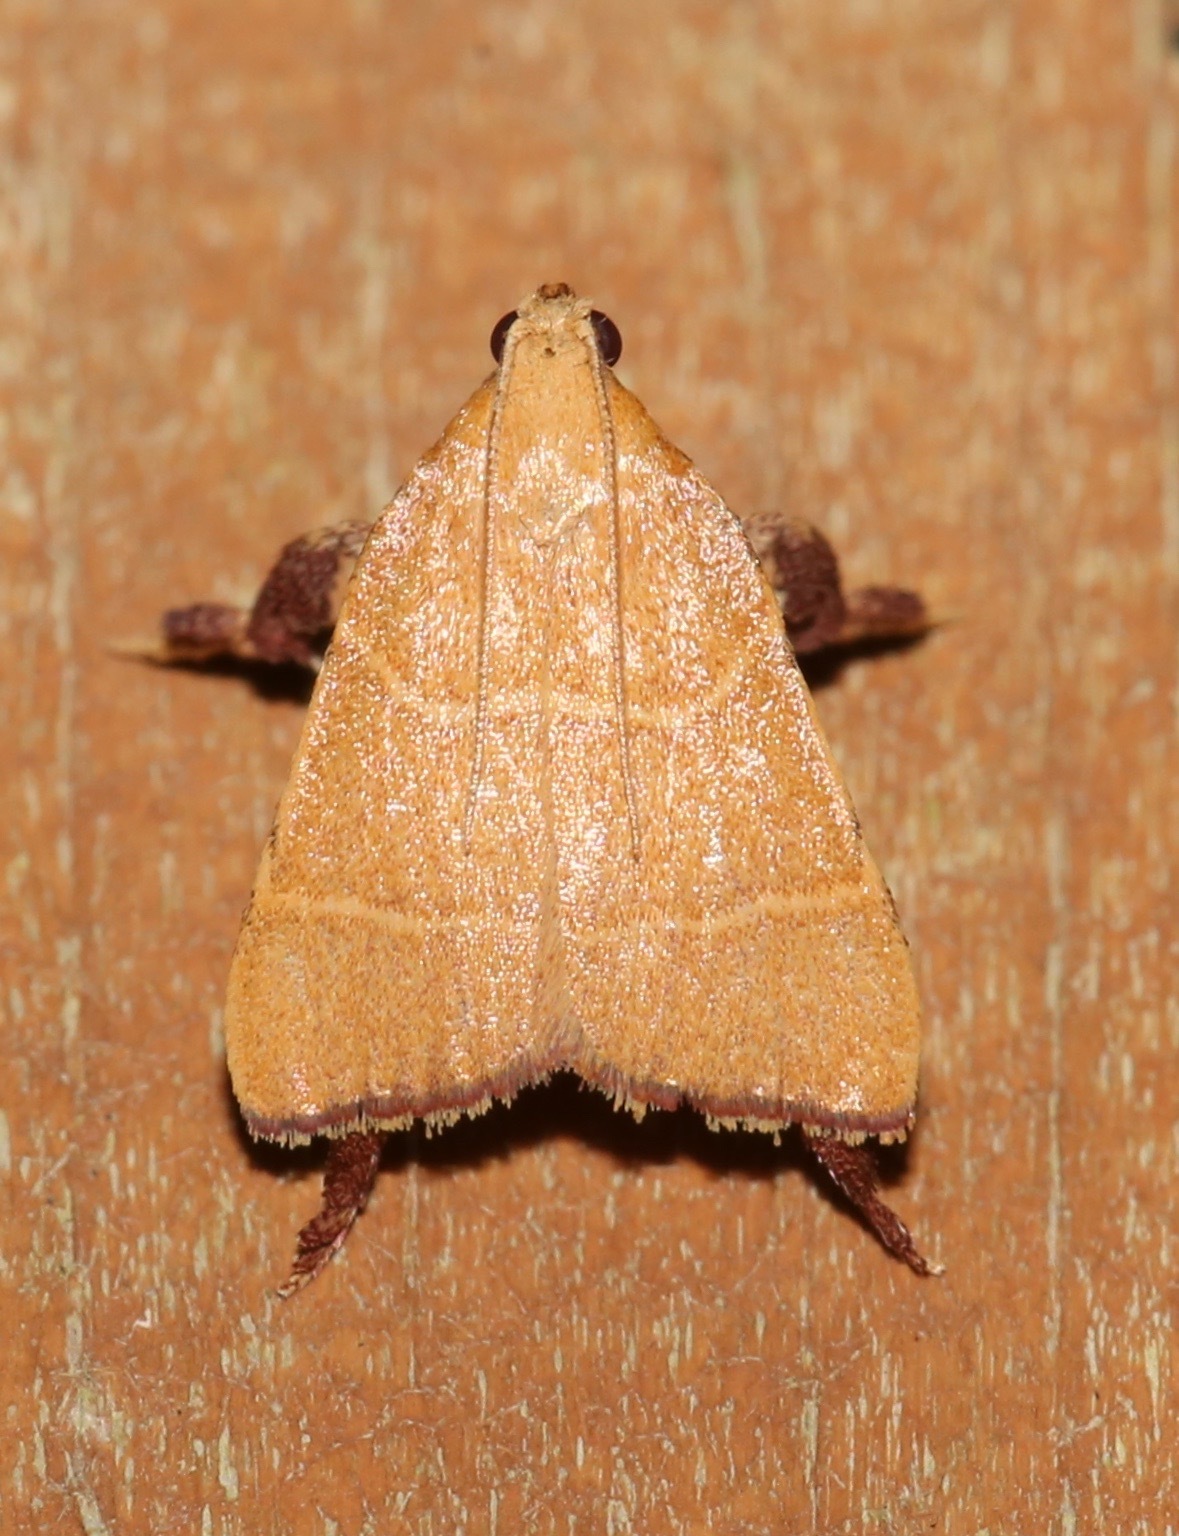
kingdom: Animalia
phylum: Arthropoda
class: Insecta
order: Lepidoptera
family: Pyralidae
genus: Parachma
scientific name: Parachma ochracealis
